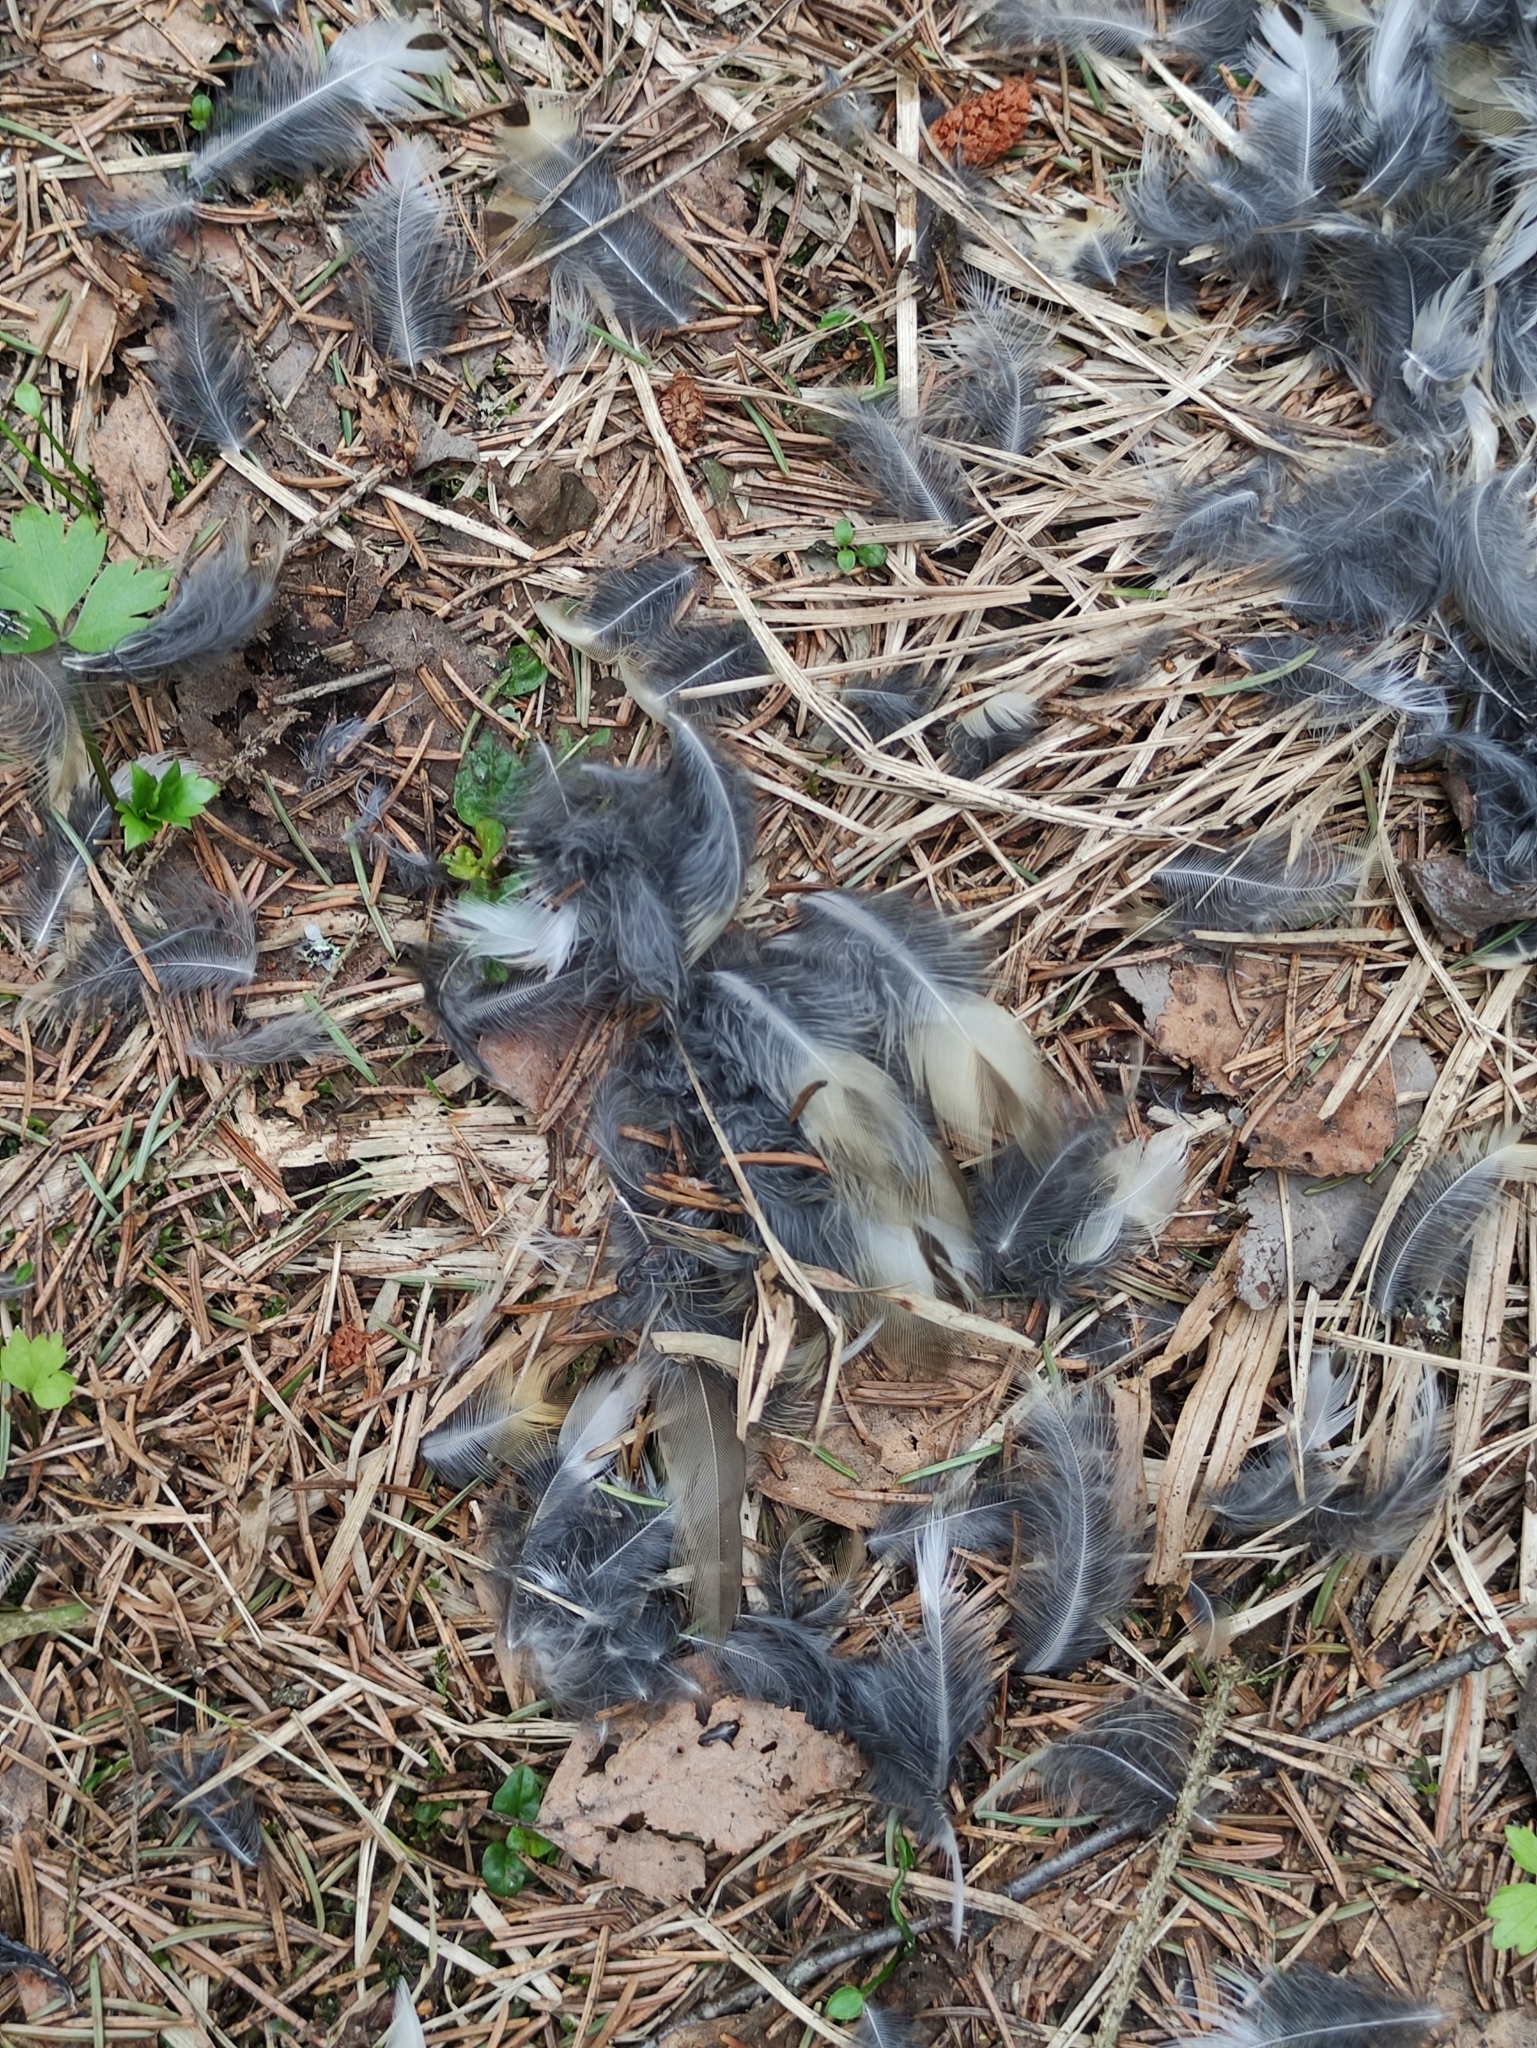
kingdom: Animalia
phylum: Chordata
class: Aves
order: Passeriformes
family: Turdidae
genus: Turdus
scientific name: Turdus philomelos
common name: Song thrush
